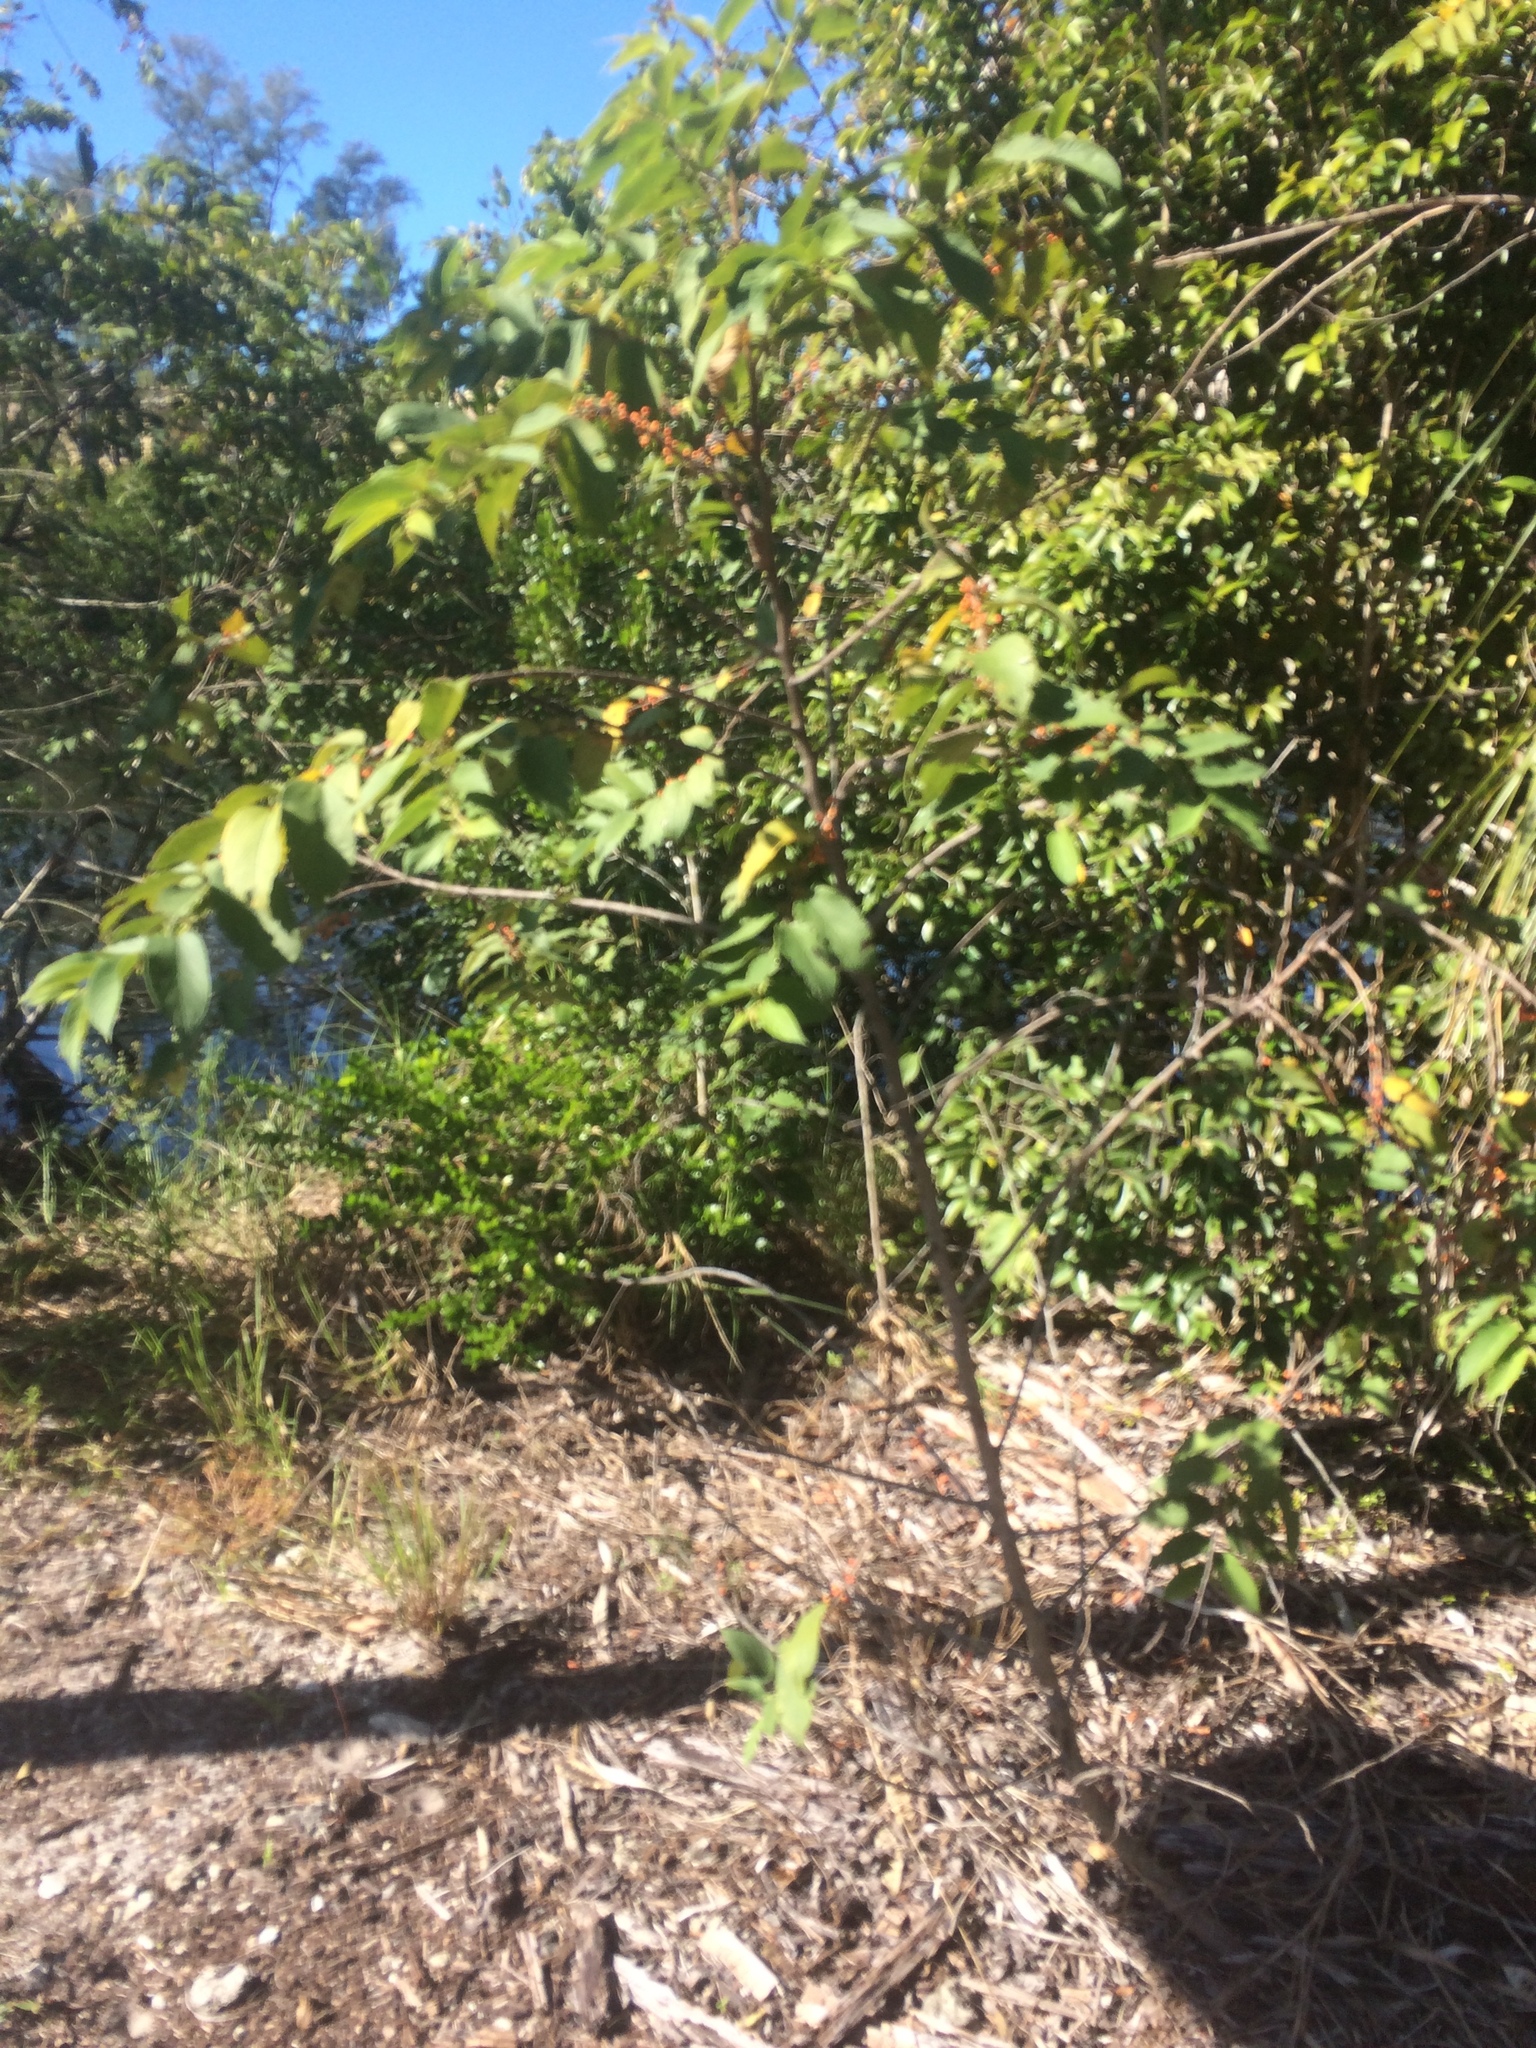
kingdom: Plantae
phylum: Tracheophyta
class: Magnoliopsida
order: Rosales
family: Cannabaceae
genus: Trema
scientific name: Trema micranthum
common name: Jamaican nettletree
